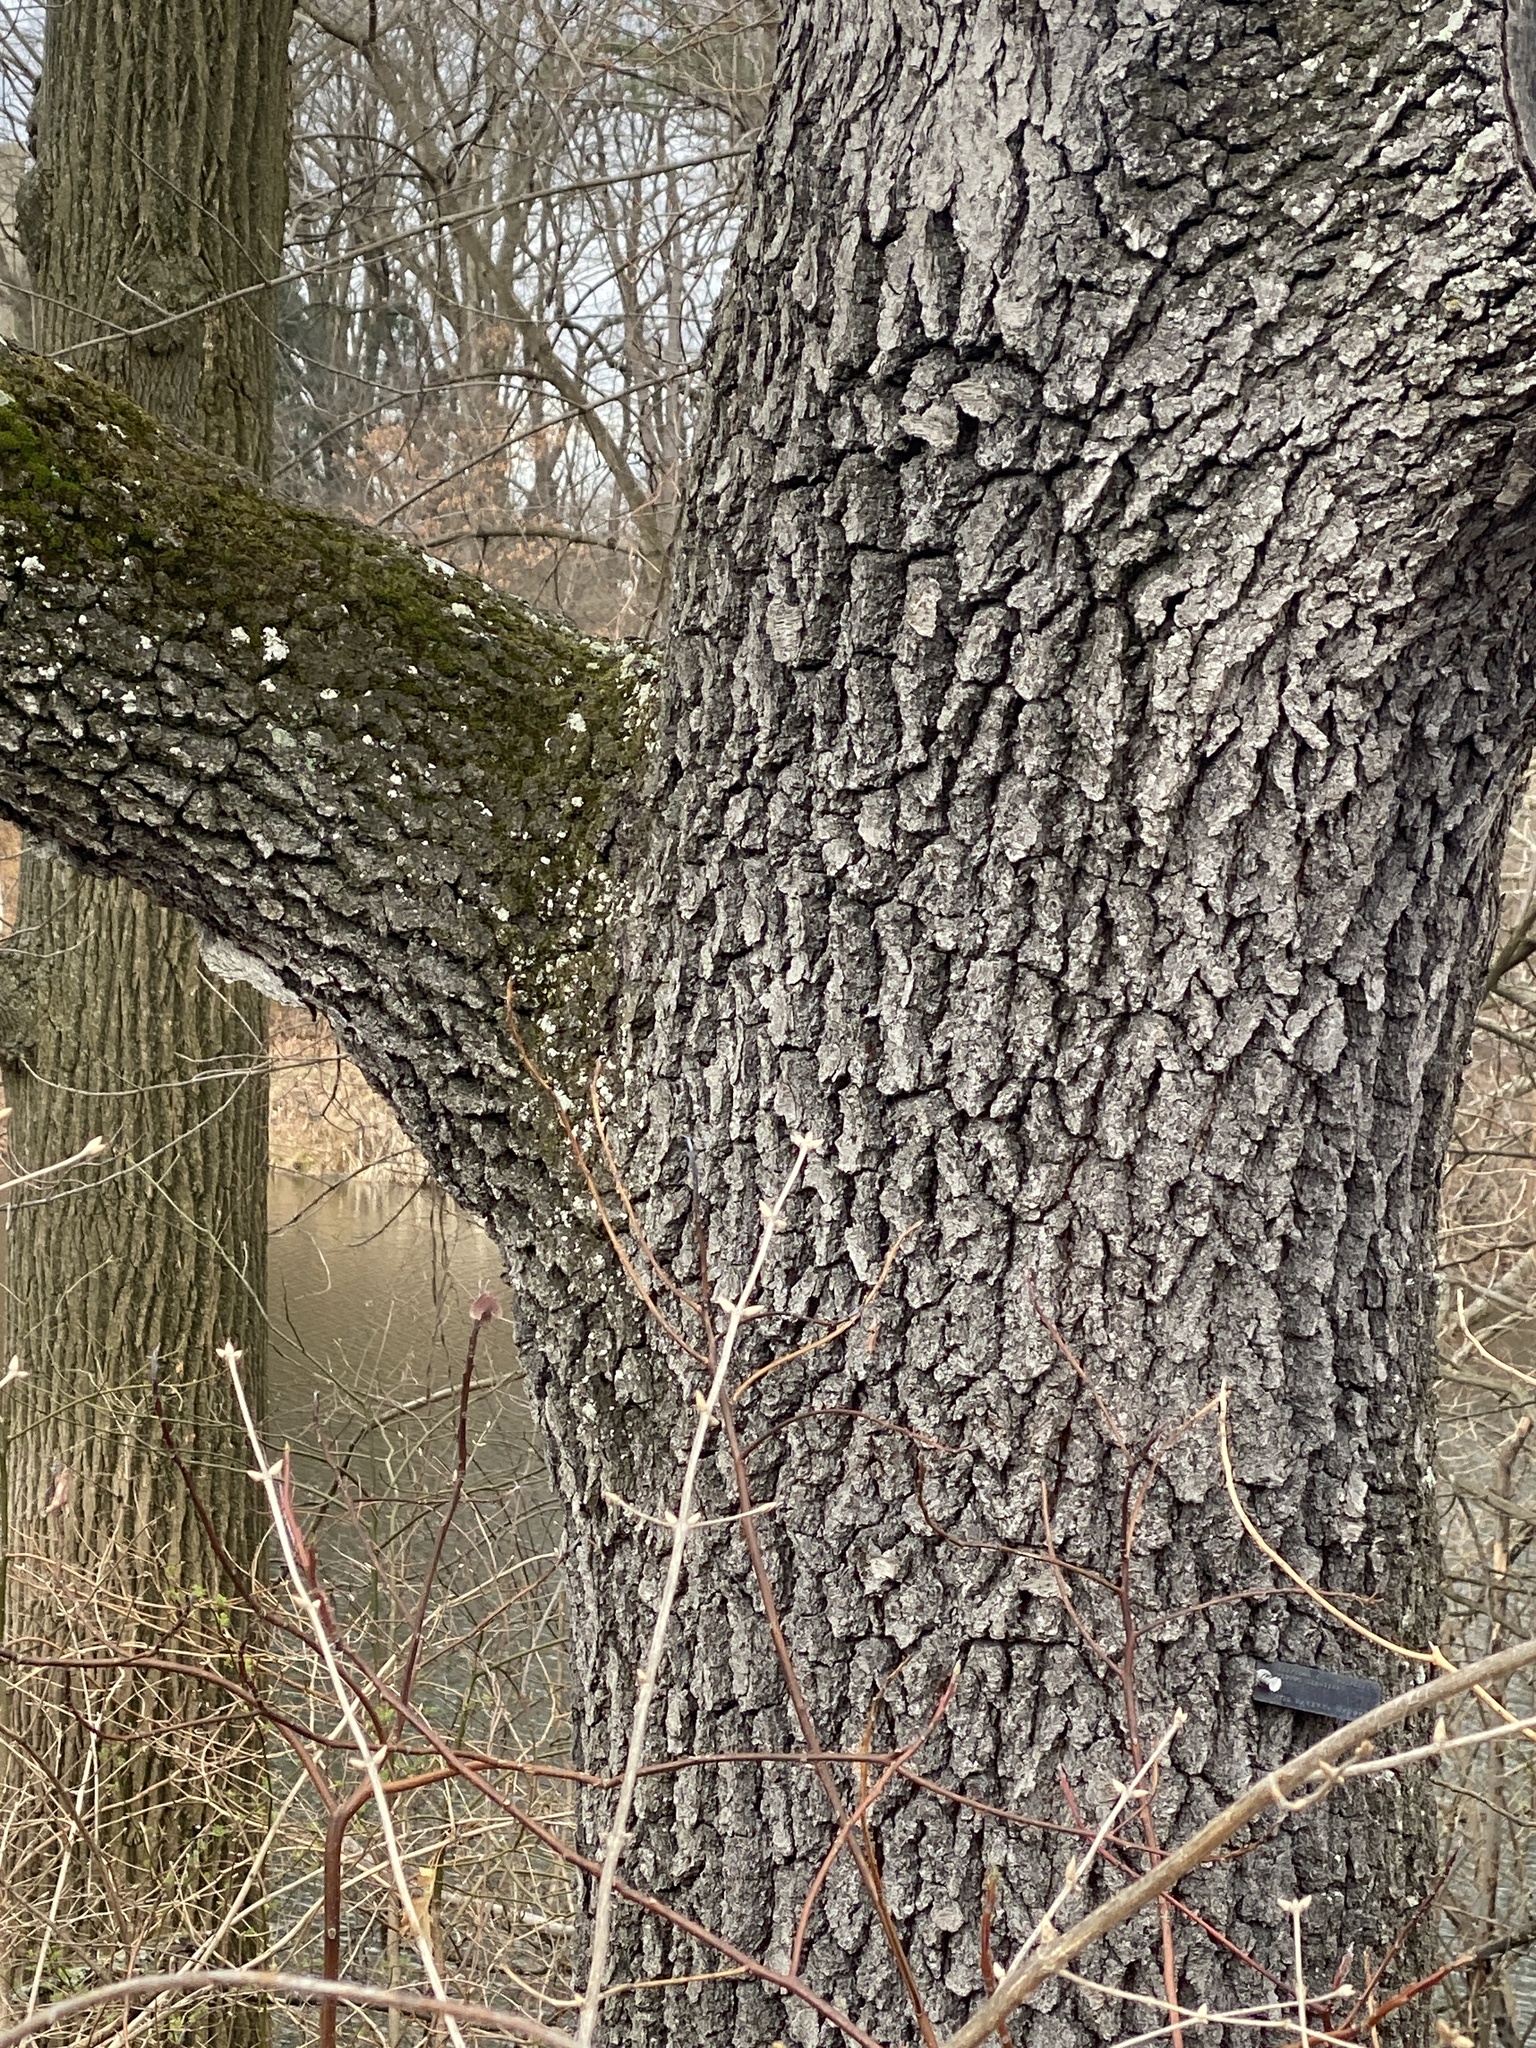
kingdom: Plantae
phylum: Tracheophyta
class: Magnoliopsida
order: Rosales
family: Rosaceae
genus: Prunus
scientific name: Prunus serotina
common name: Black cherry
